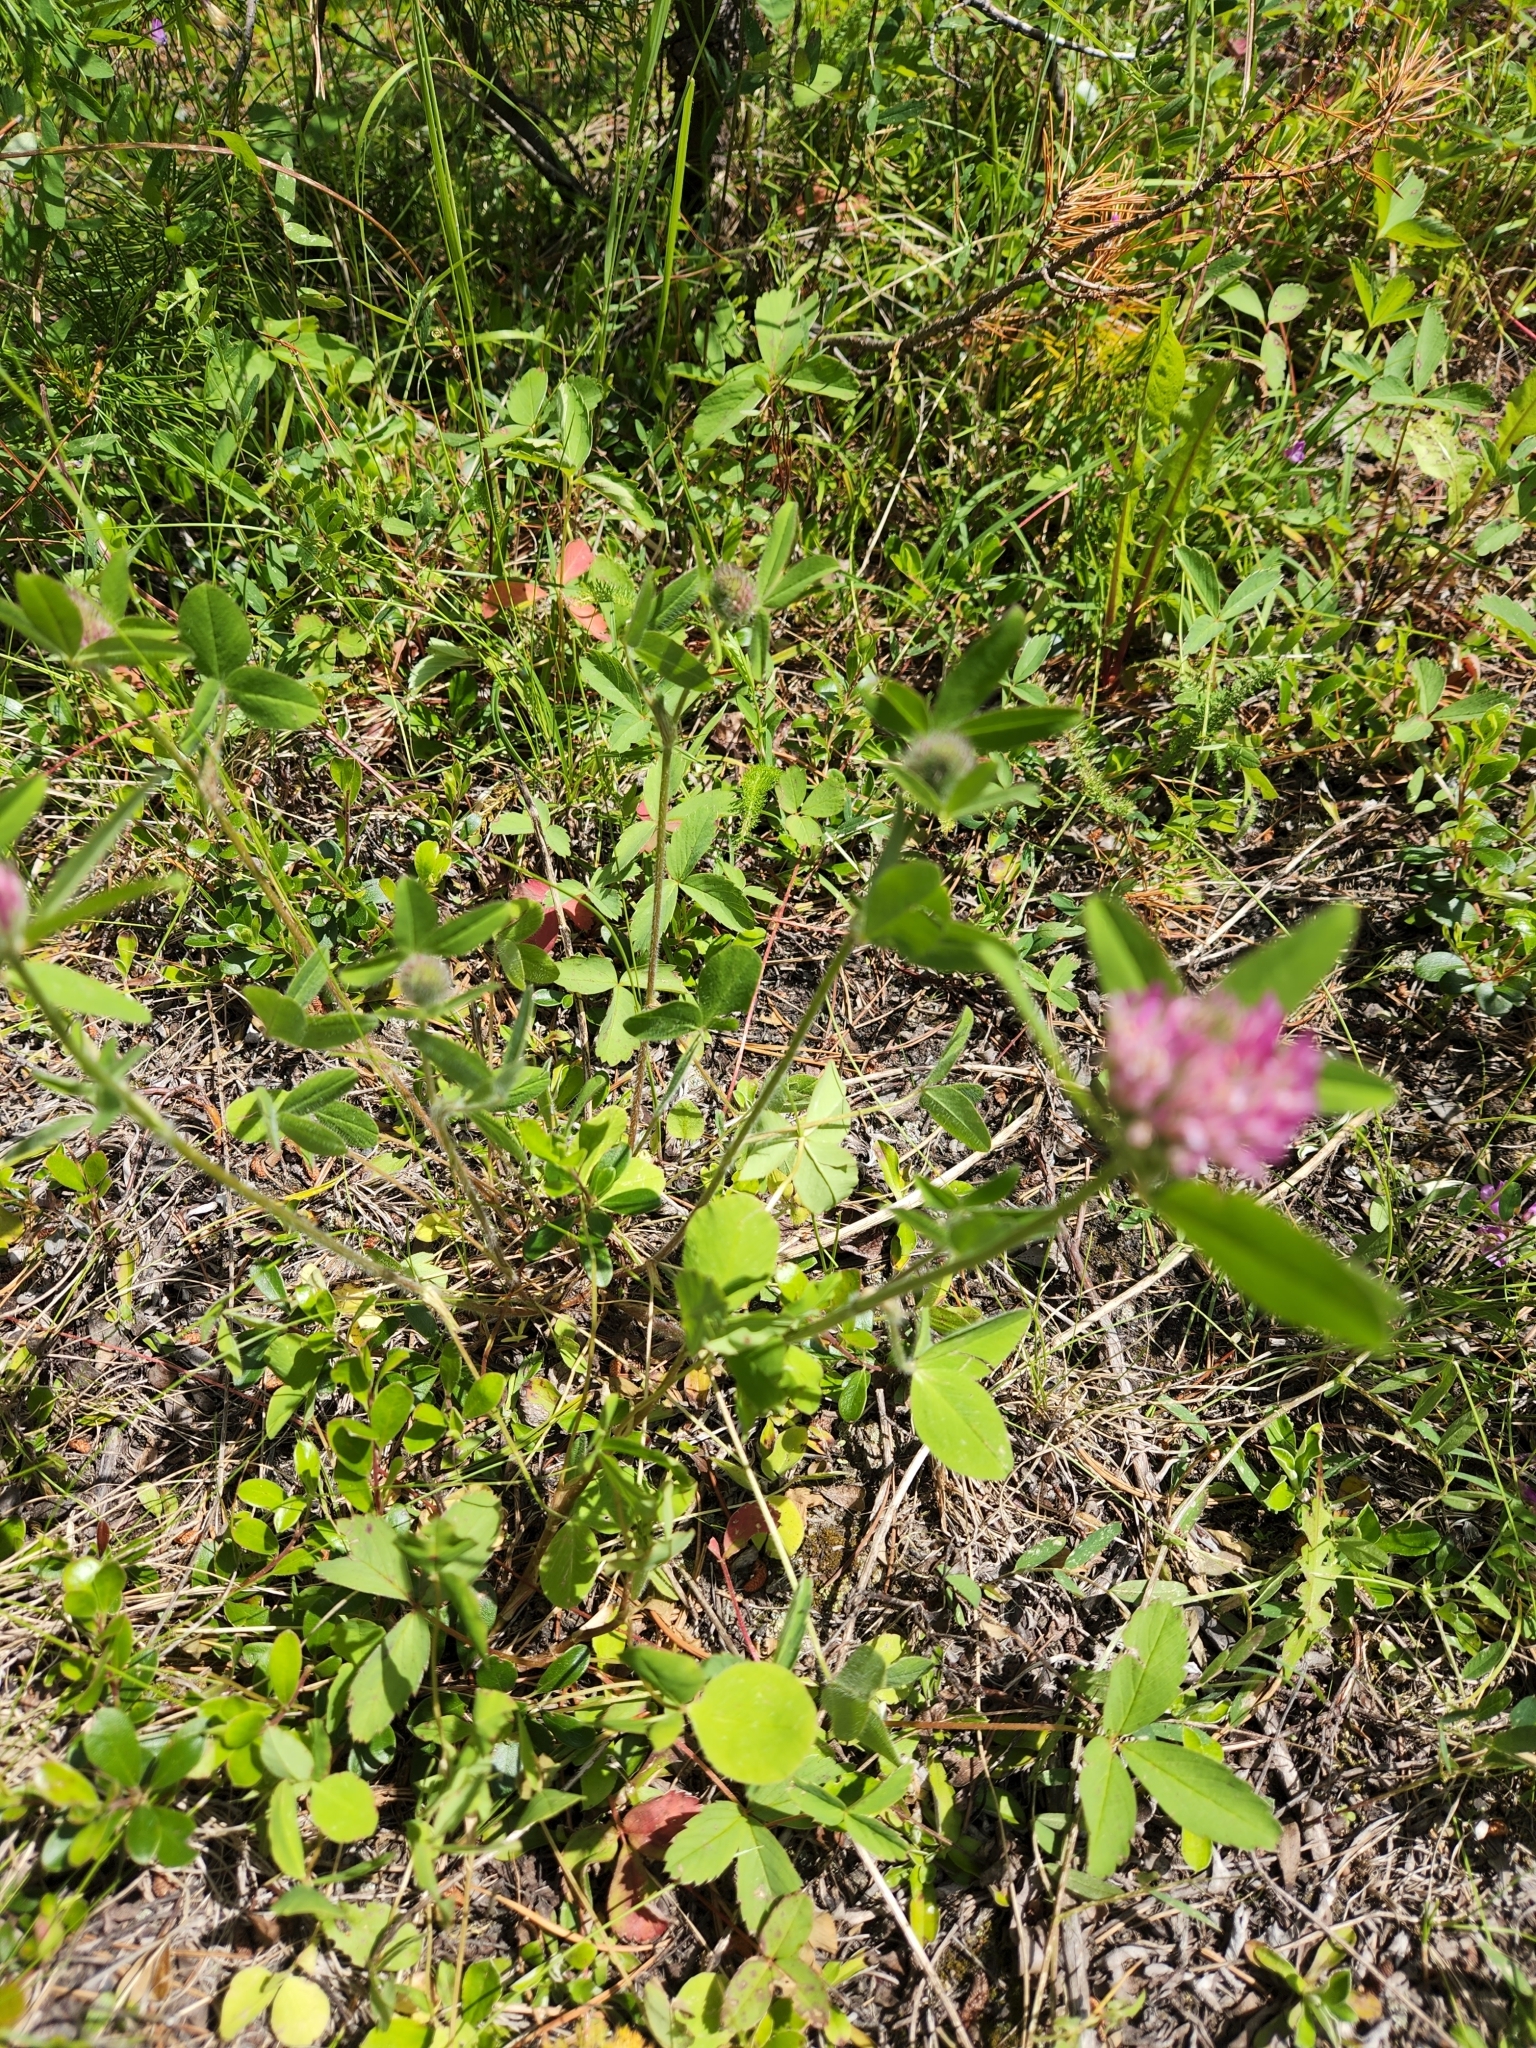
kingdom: Plantae
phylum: Tracheophyta
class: Magnoliopsida
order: Fabales
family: Fabaceae
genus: Trifolium
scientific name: Trifolium pratense
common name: Red clover
